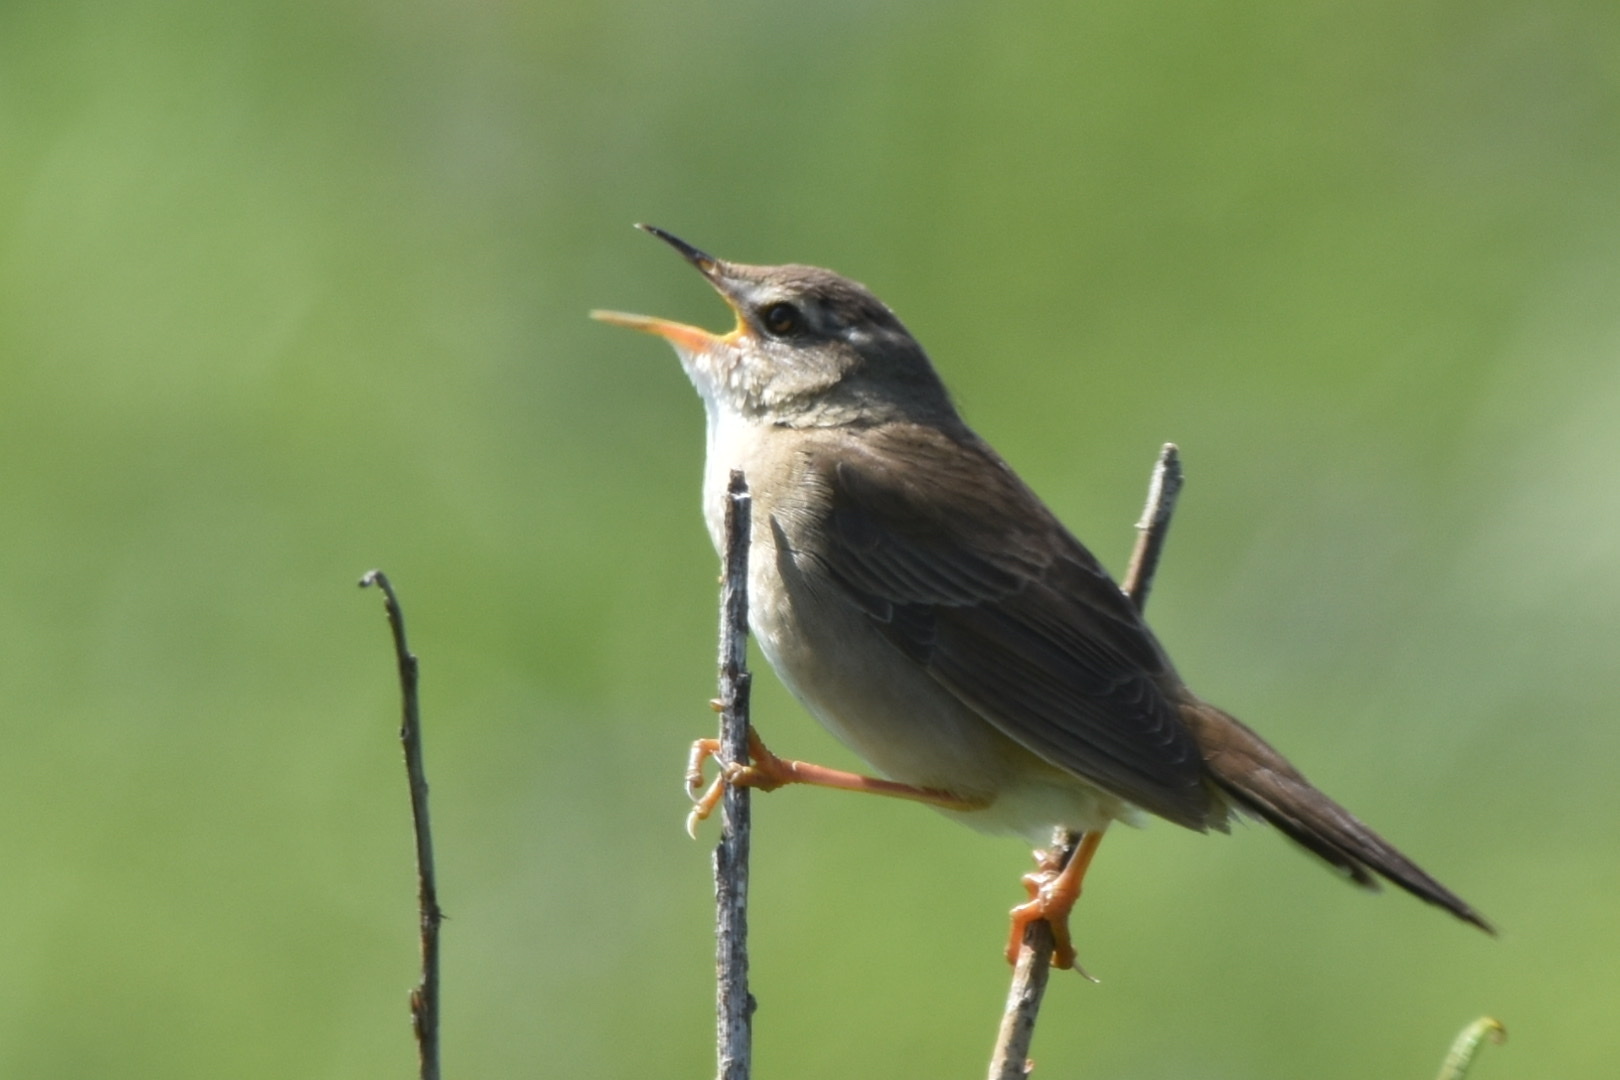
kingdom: Animalia
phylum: Chordata
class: Aves
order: Passeriformes
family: Locustellidae
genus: Locustella
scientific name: Locustella ochotensis
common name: Middendorff's grasshopper-warbler
